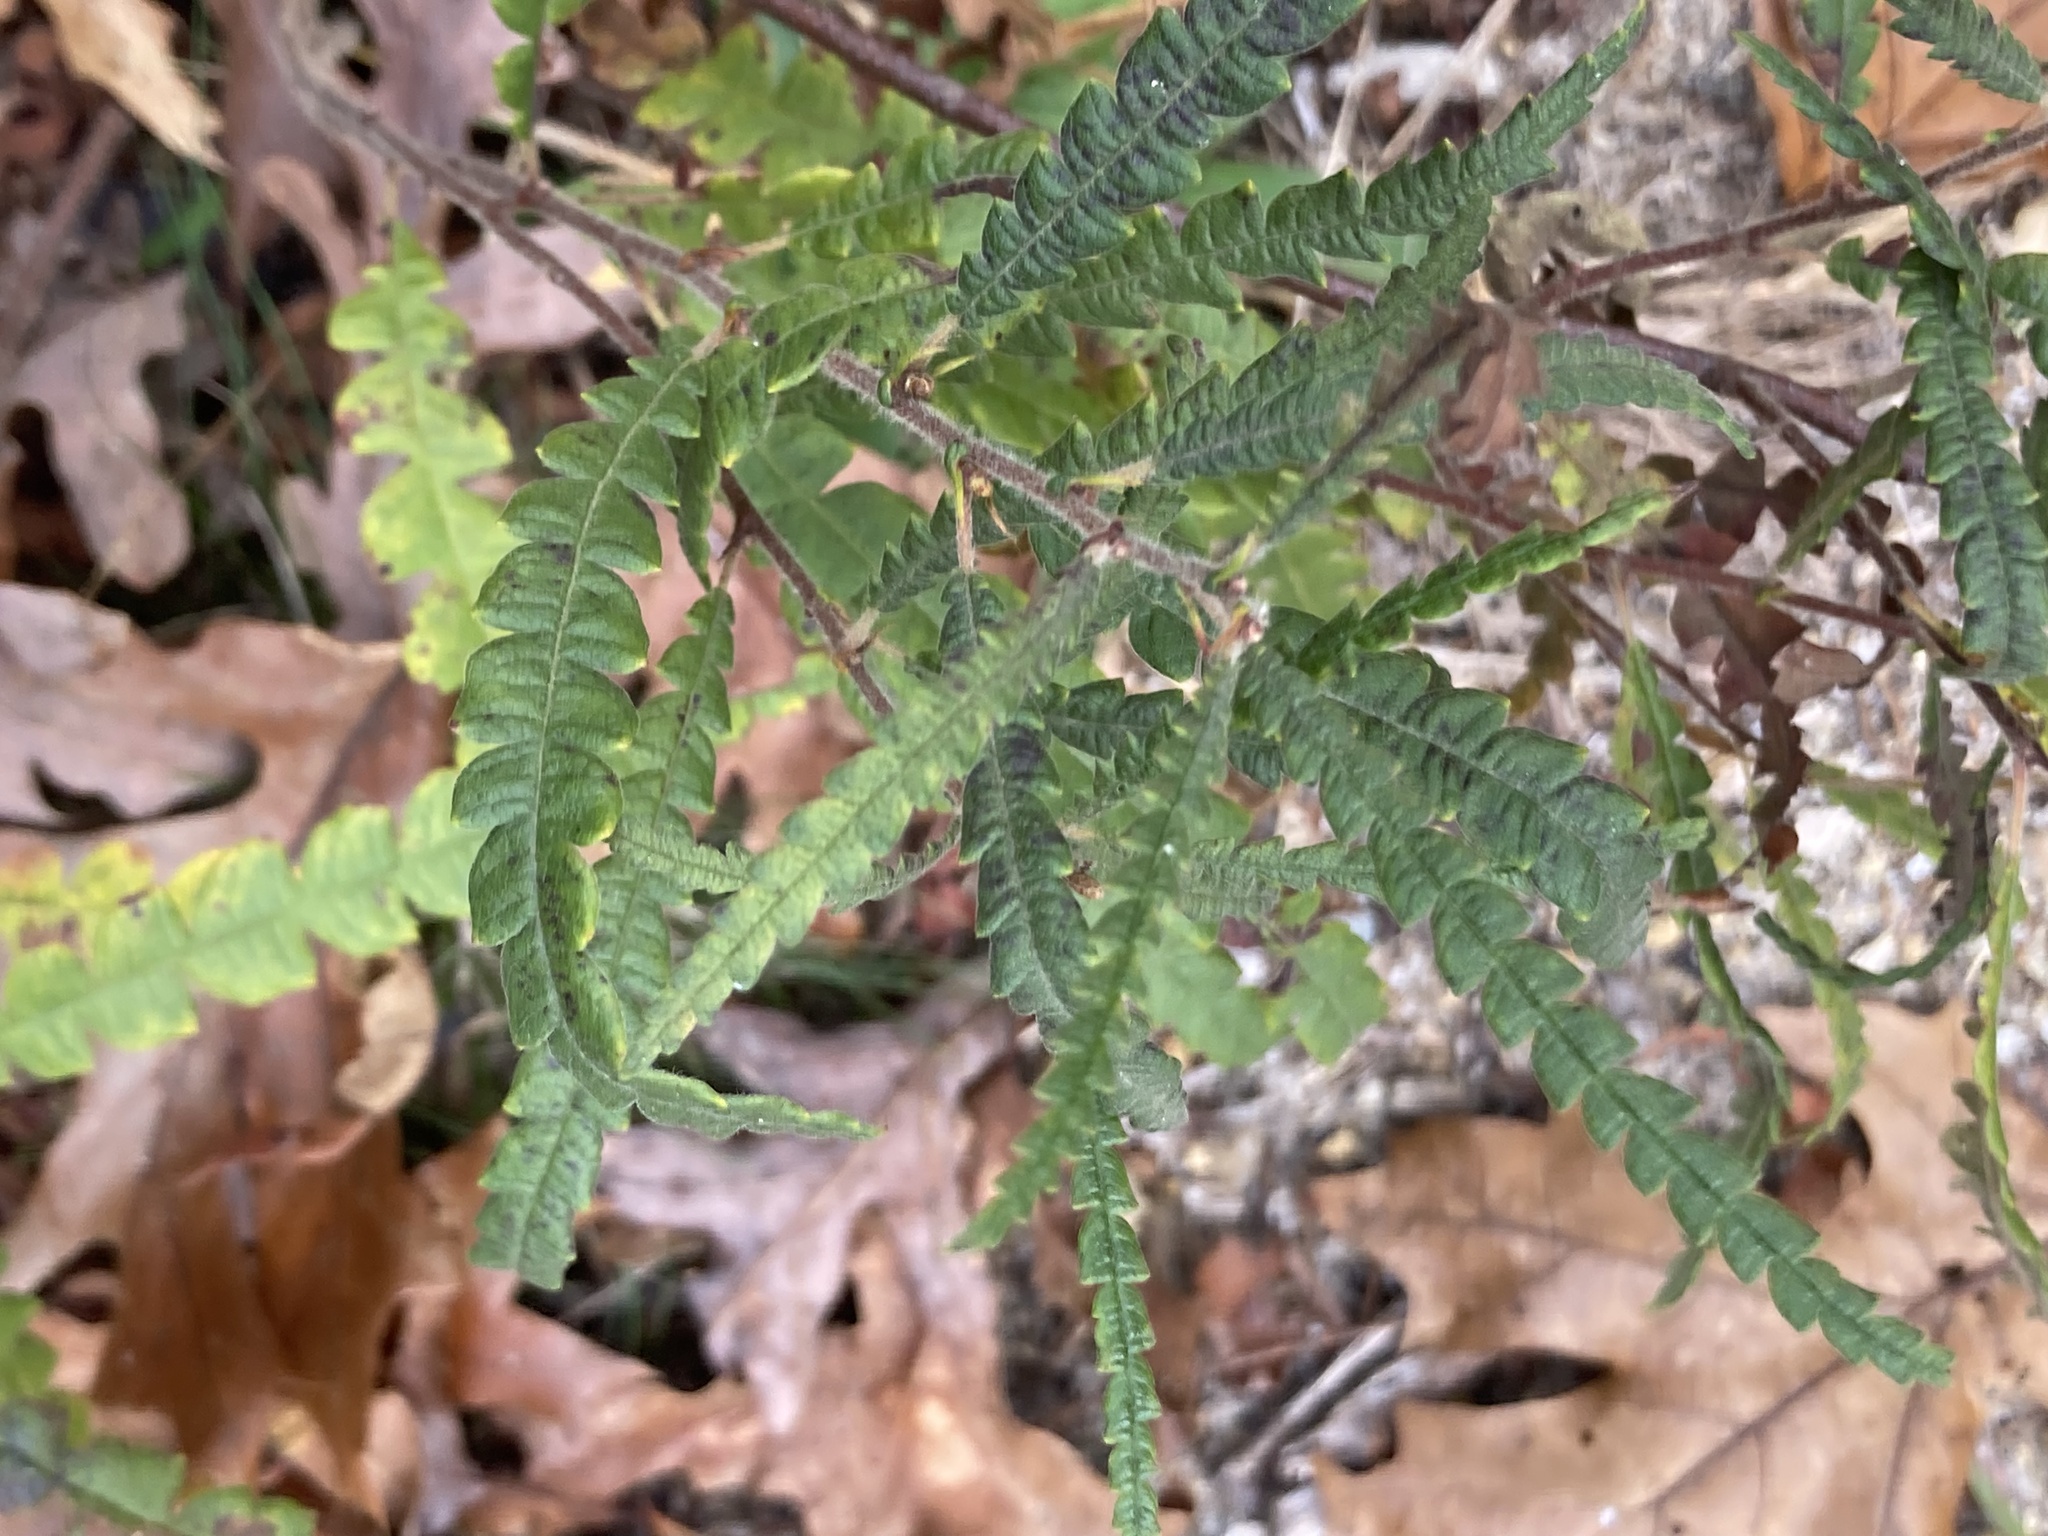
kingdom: Plantae
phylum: Tracheophyta
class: Magnoliopsida
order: Fagales
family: Myricaceae
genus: Comptonia
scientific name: Comptonia peregrina
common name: Sweet-fern
